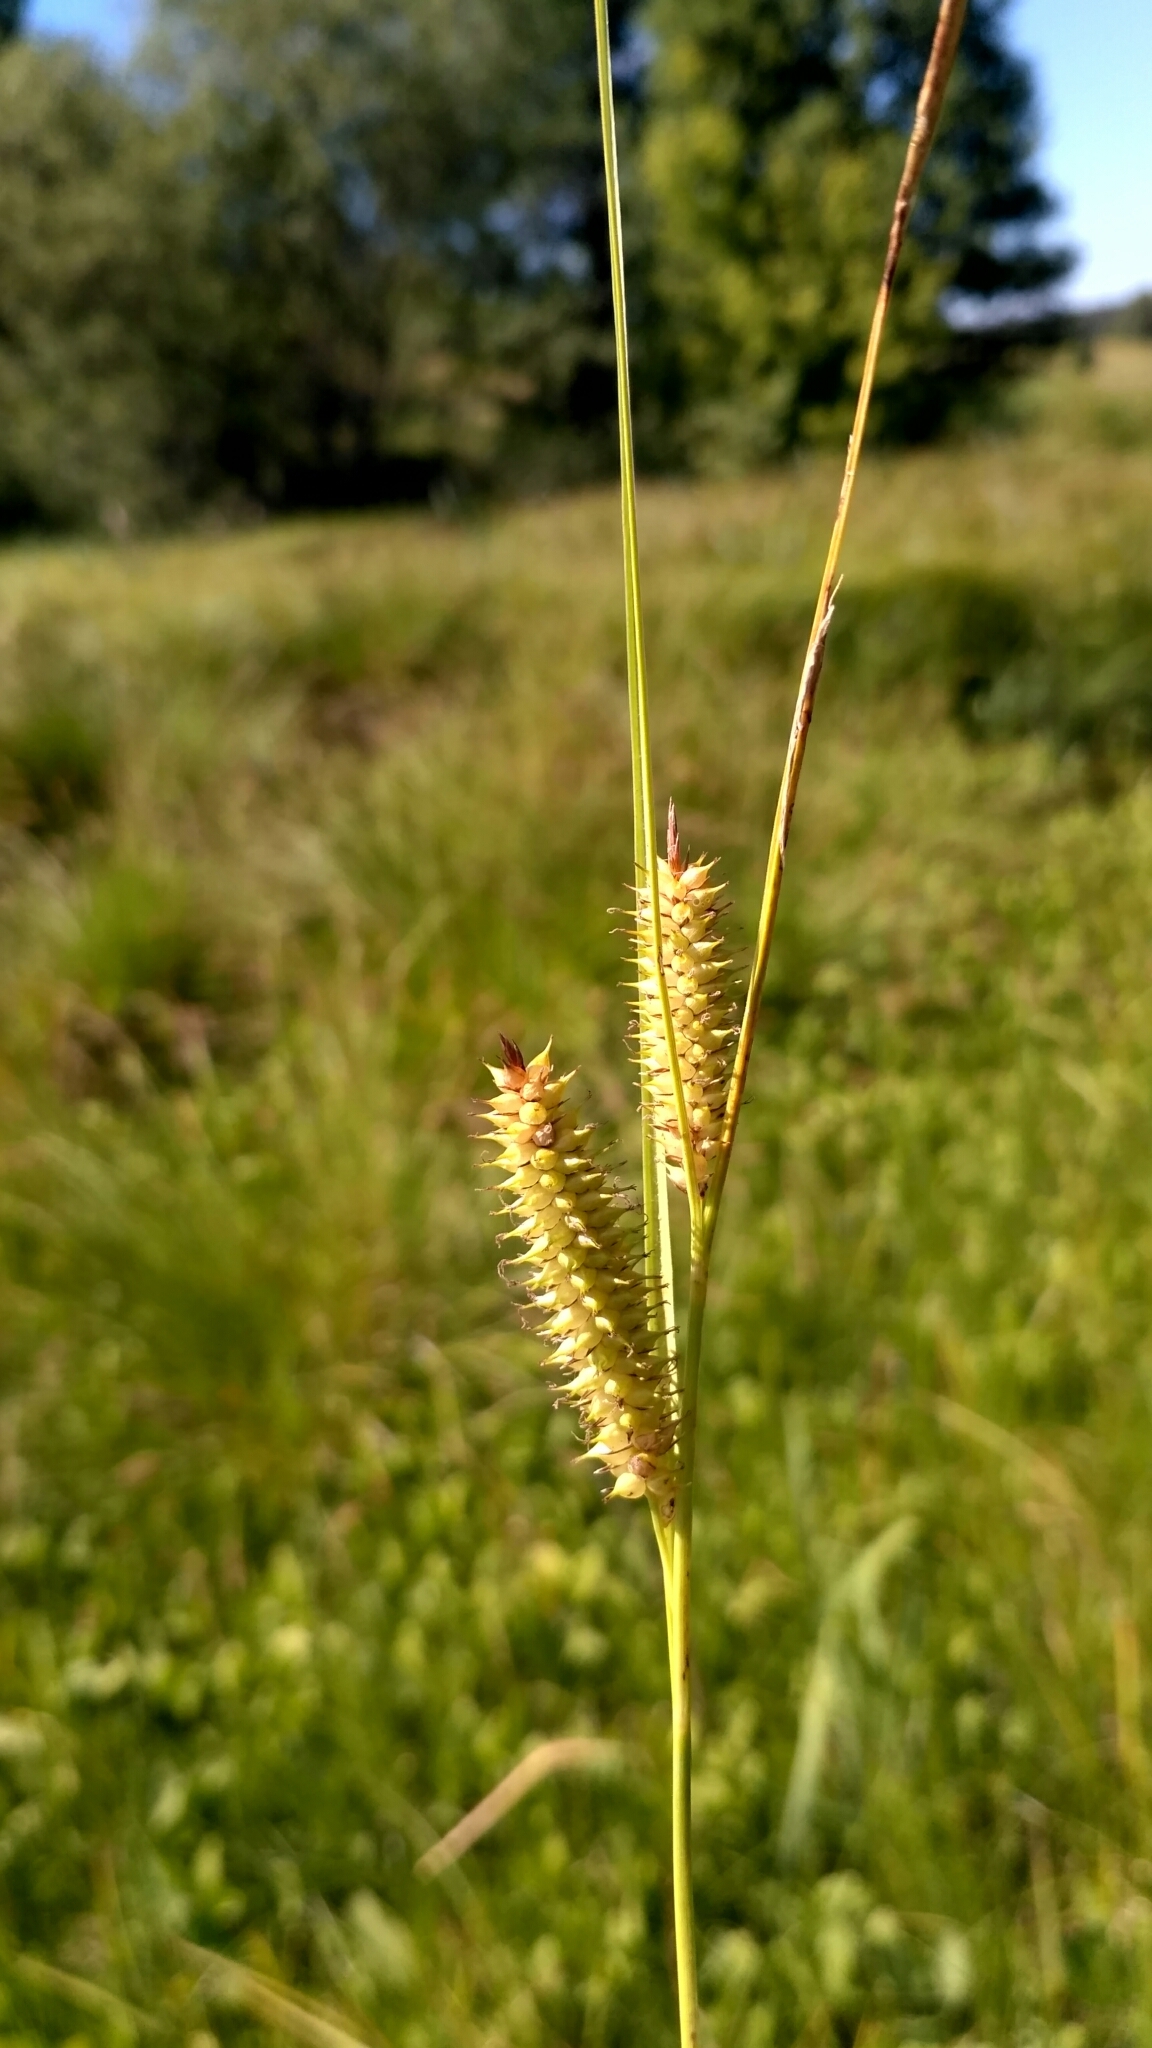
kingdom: Plantae
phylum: Tracheophyta
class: Liliopsida
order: Poales
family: Cyperaceae
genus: Carex
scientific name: Carex rostrata
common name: Bottle sedge
